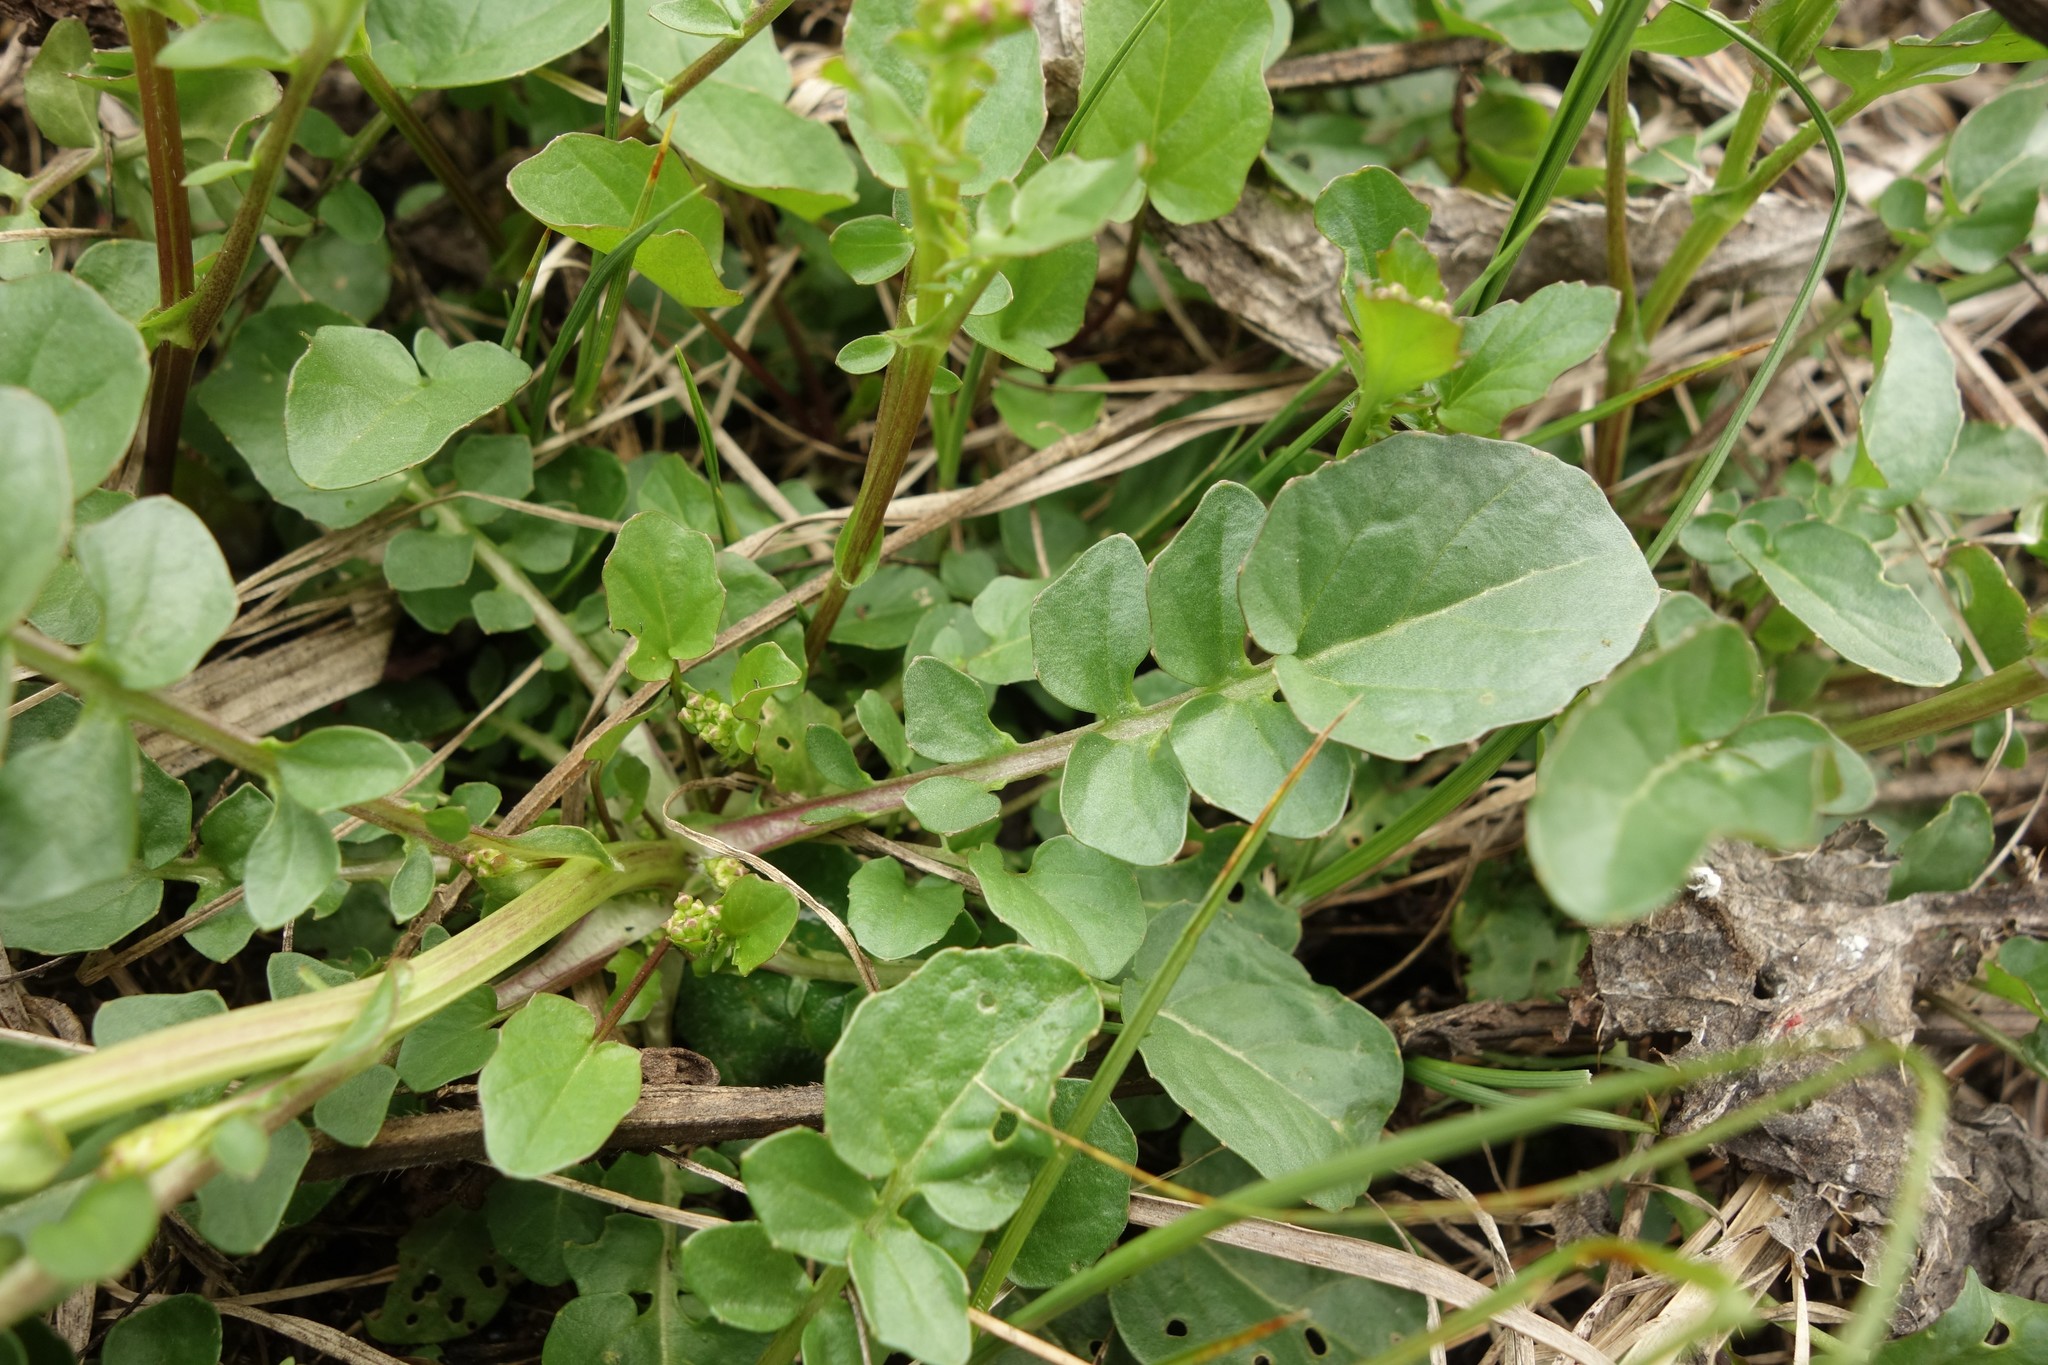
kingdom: Plantae
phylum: Tracheophyta
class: Magnoliopsida
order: Brassicales
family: Brassicaceae
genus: Barbarea
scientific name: Barbarea vulgaris
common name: Cressy-greens
